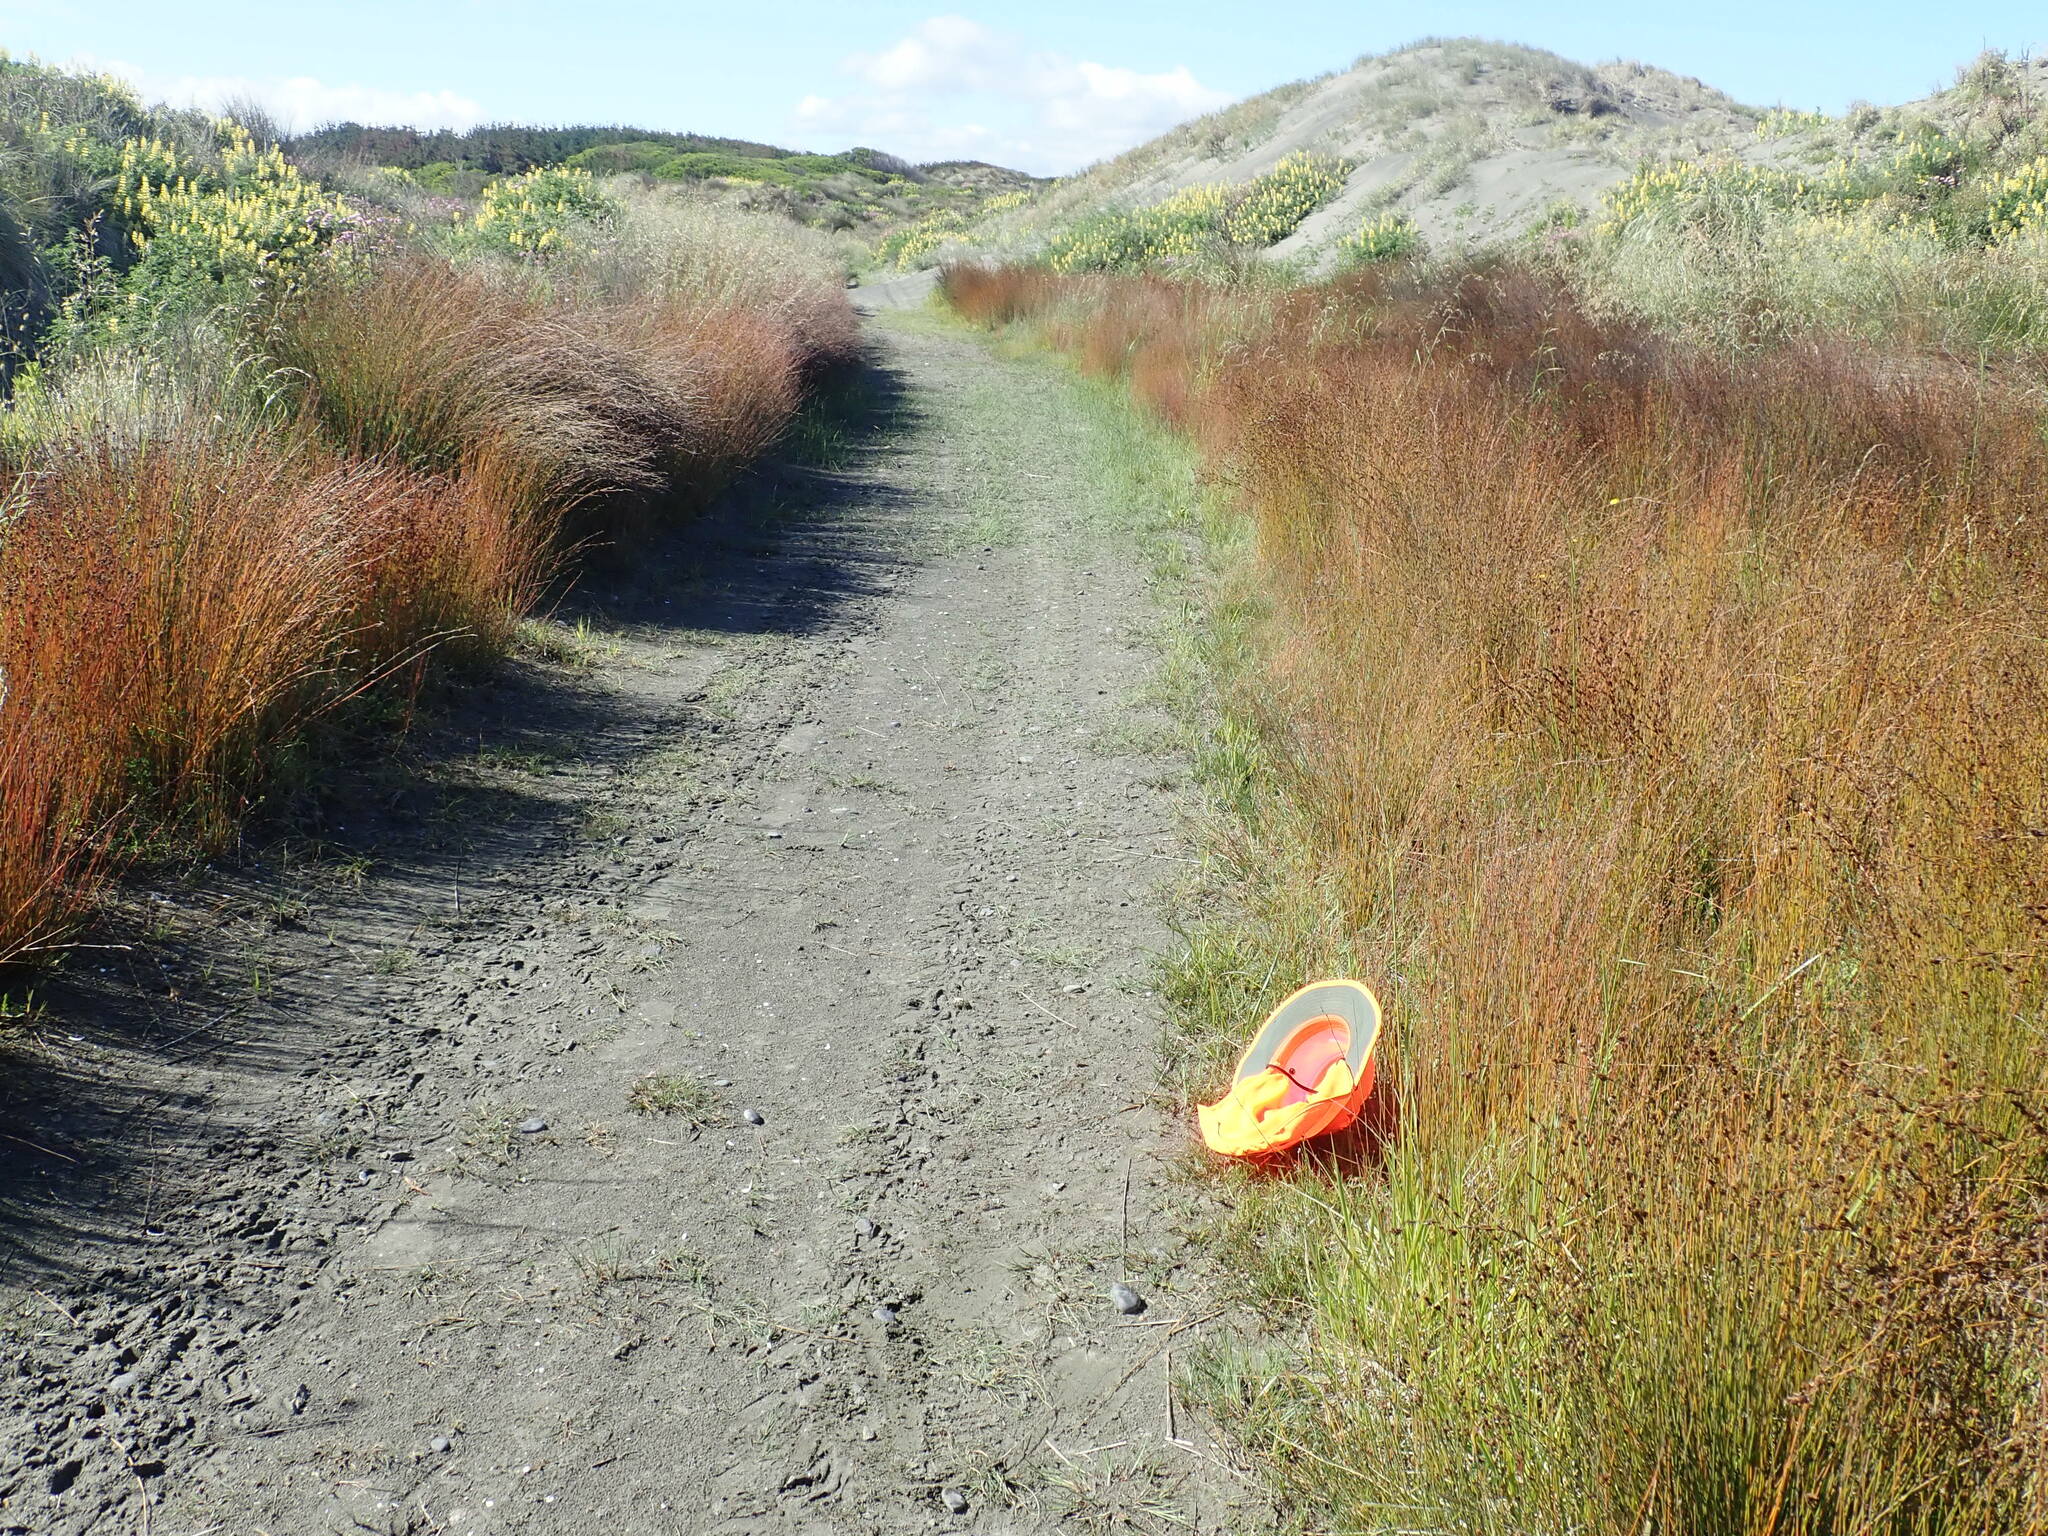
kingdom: Plantae
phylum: Tracheophyta
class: Liliopsida
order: Poales
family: Juncaceae
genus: Juncus
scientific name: Juncus articulatus
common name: Jointed rush
